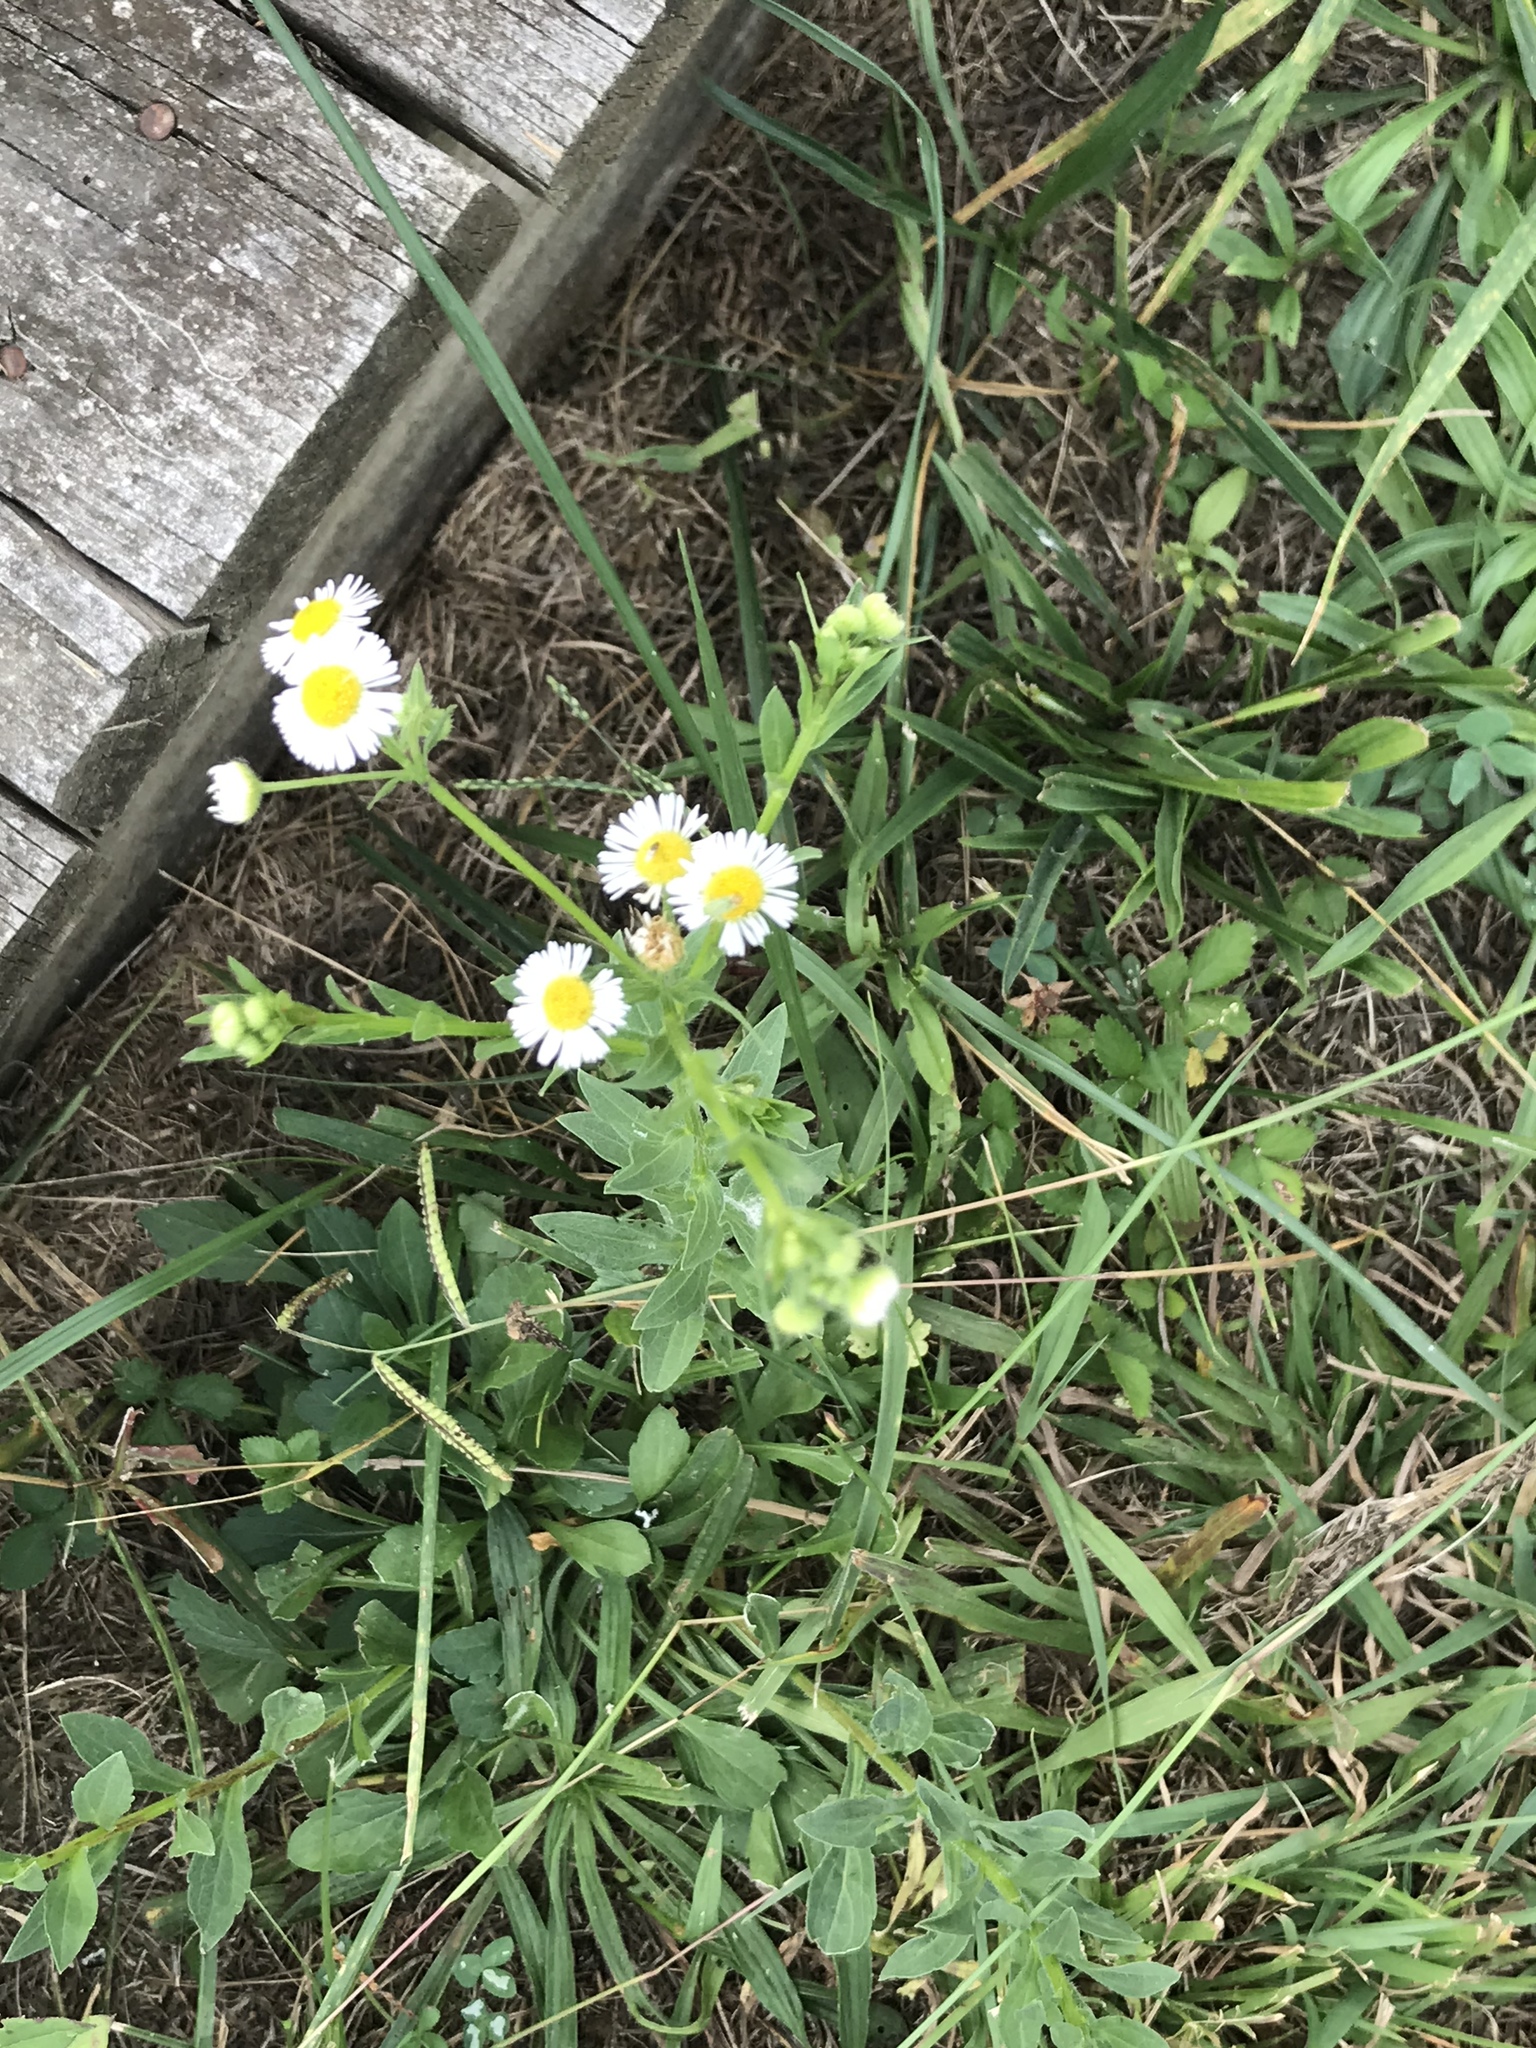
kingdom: Plantae
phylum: Tracheophyta
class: Magnoliopsida
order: Asterales
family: Asteraceae
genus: Erigeron
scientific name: Erigeron strigosus
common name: Common eastern fleabane
